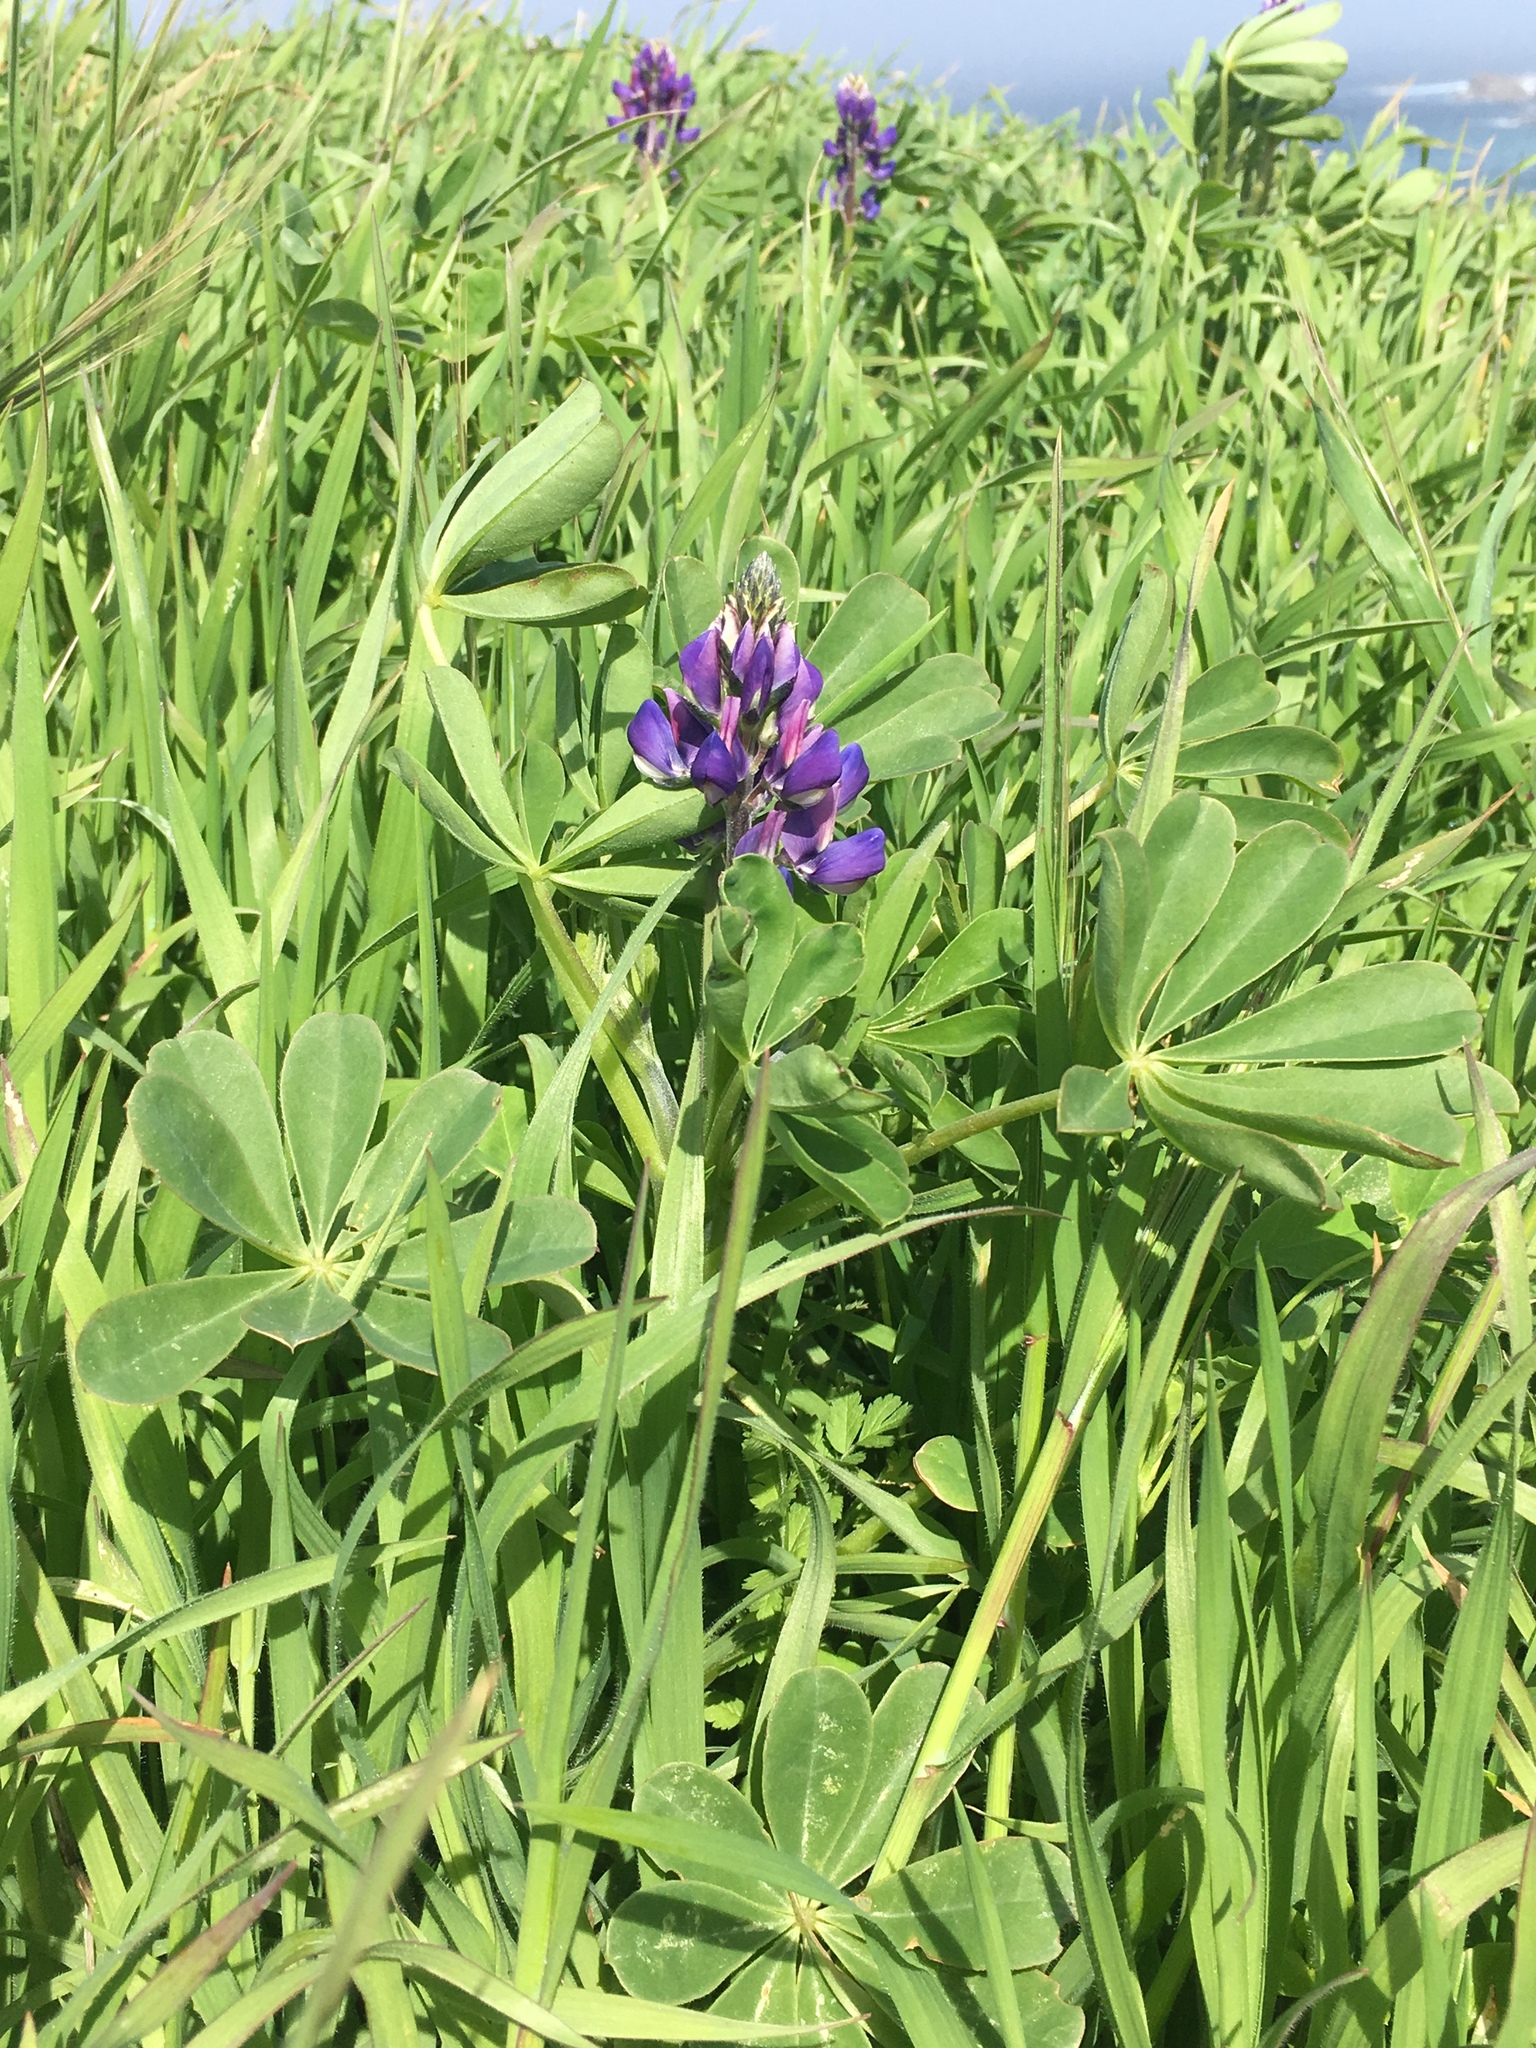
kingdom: Plantae
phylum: Tracheophyta
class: Magnoliopsida
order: Fabales
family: Fabaceae
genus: Lupinus
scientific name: Lupinus succulentus
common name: Arroyo lupine
